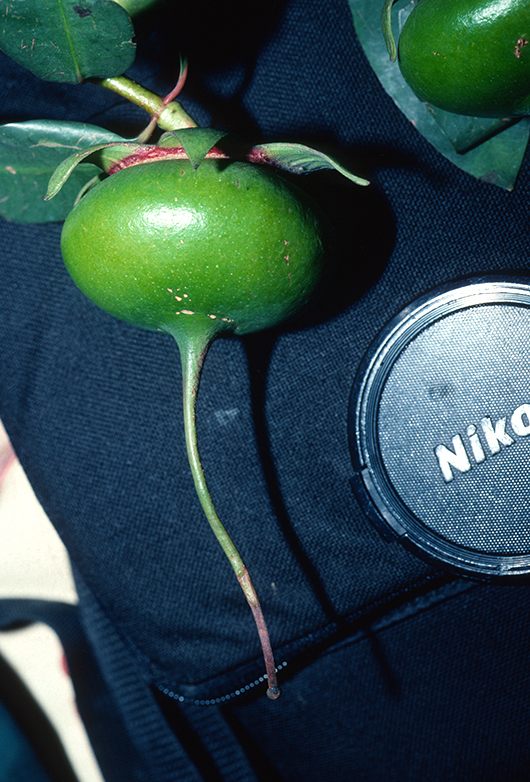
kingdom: Plantae
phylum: Tracheophyta
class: Magnoliopsida
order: Myrtales
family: Lythraceae
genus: Sonneratia
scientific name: Sonneratia caseolaris
